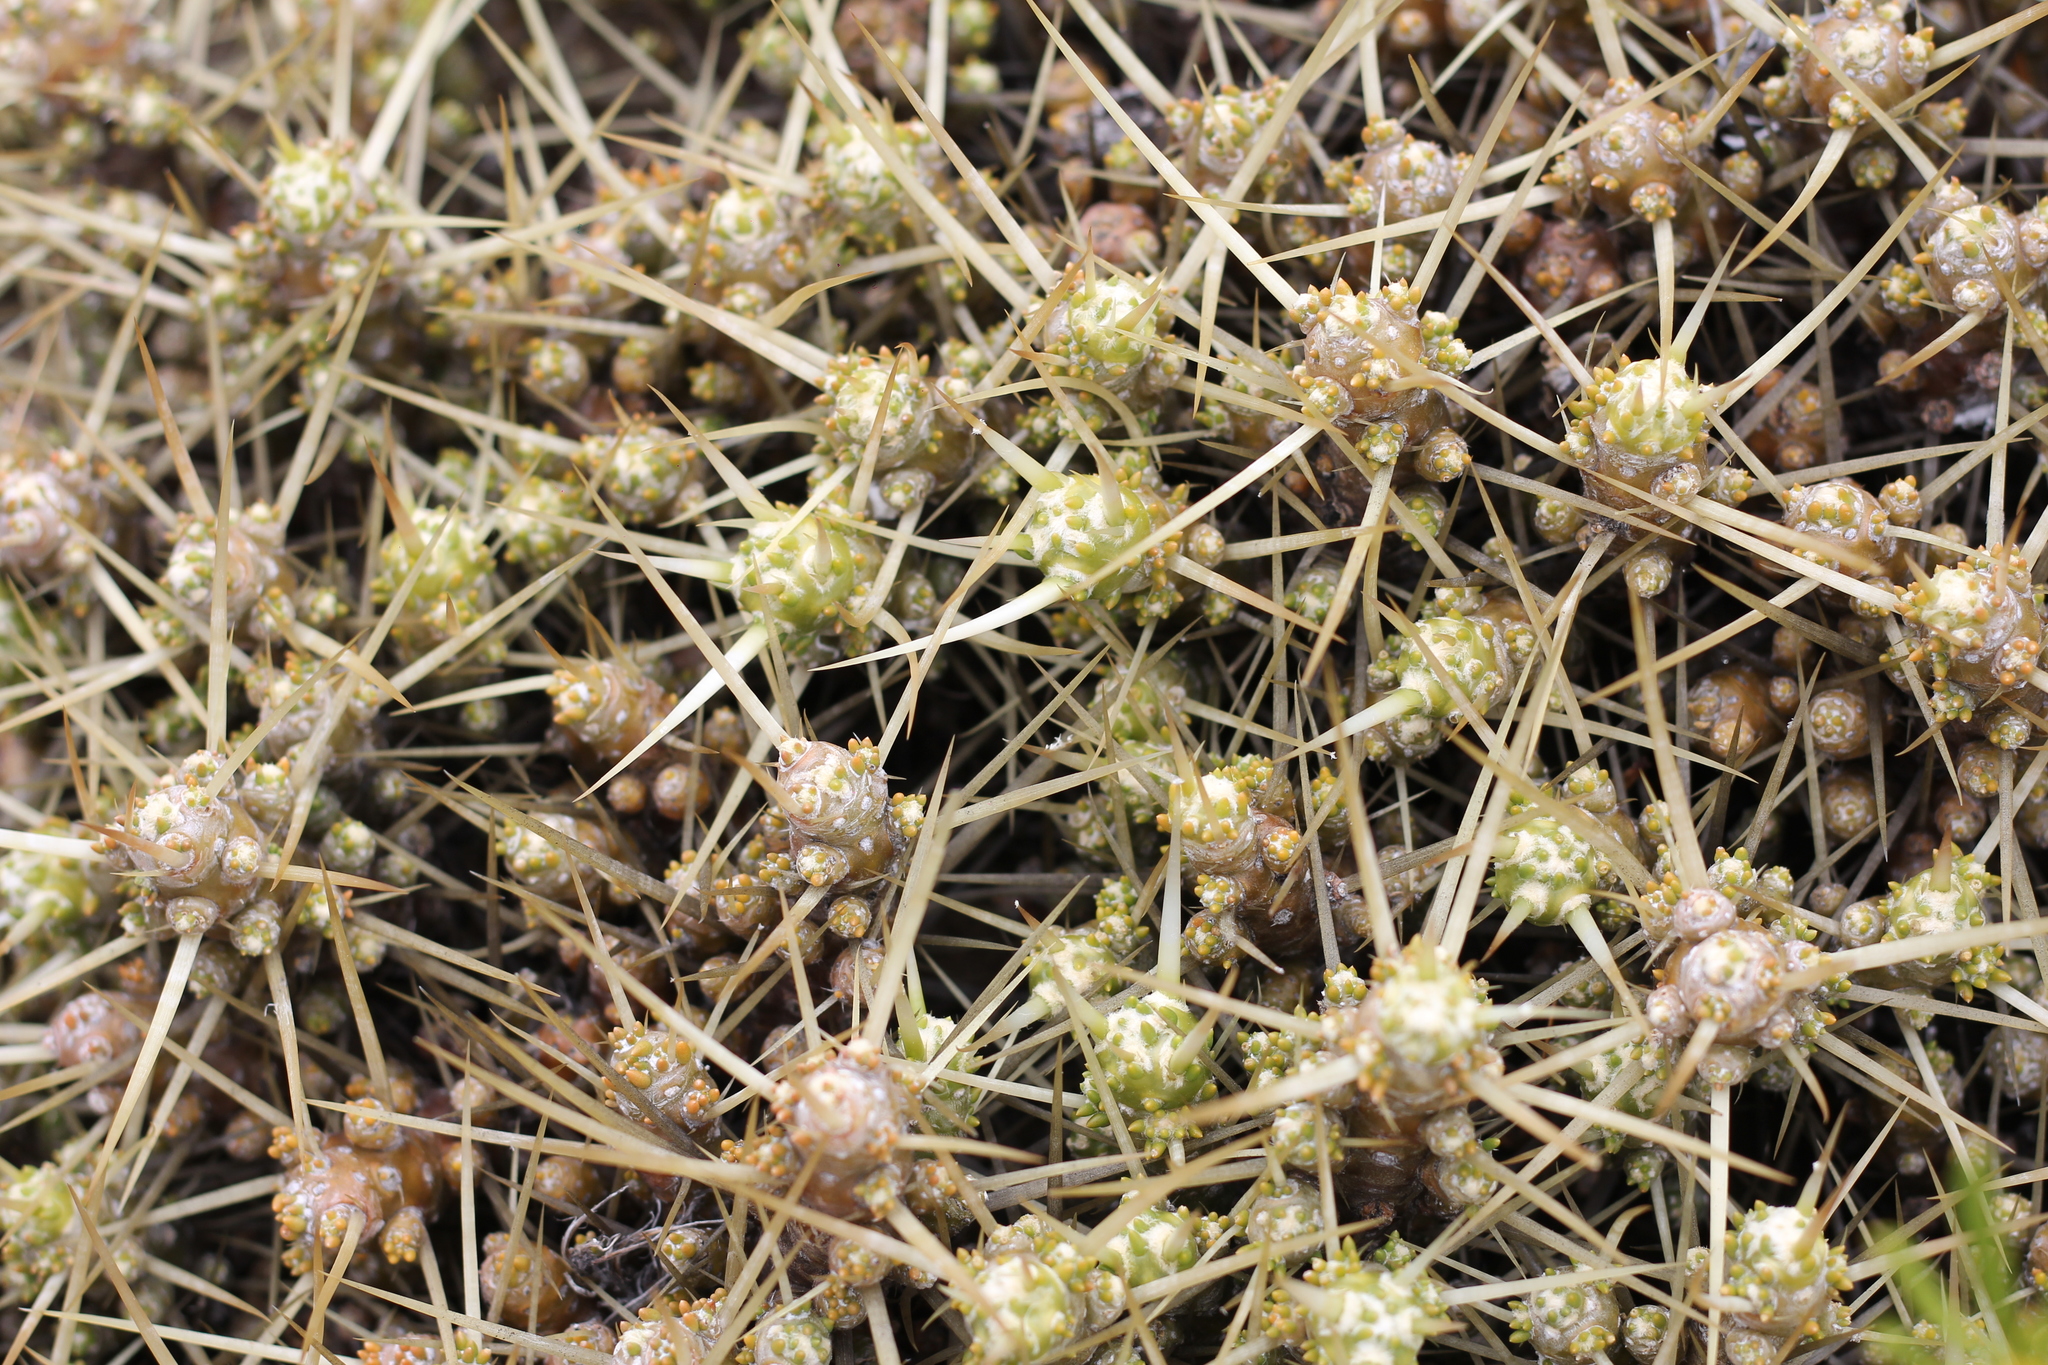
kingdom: Plantae
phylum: Tracheophyta
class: Magnoliopsida
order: Caryophyllales
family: Cactaceae
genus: Maihuenia
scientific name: Maihuenia patagonica
